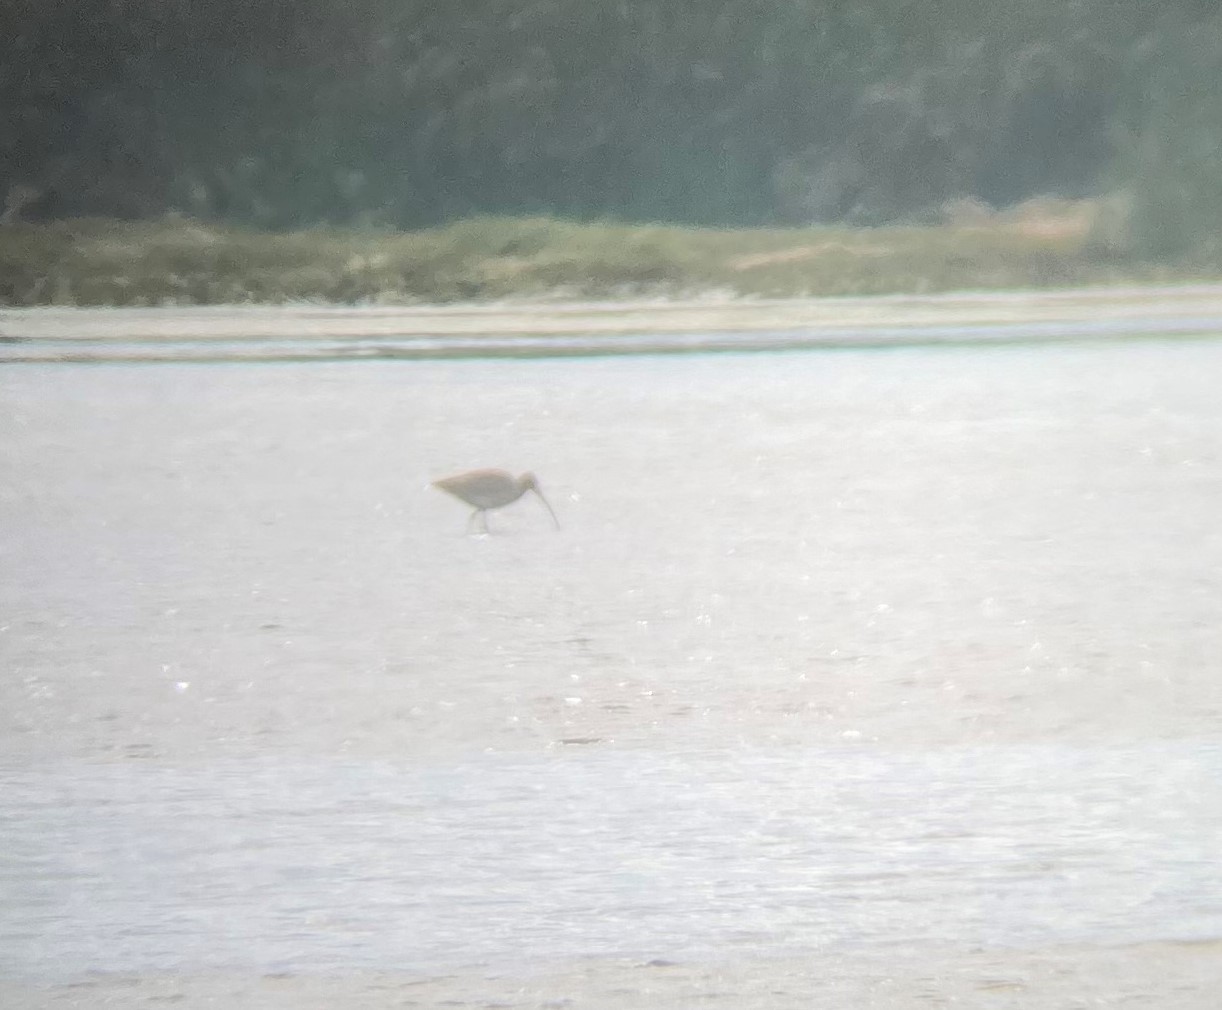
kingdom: Animalia
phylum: Chordata
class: Aves
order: Charadriiformes
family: Scolopacidae
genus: Numenius
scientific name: Numenius arquata
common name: Eurasian curlew
